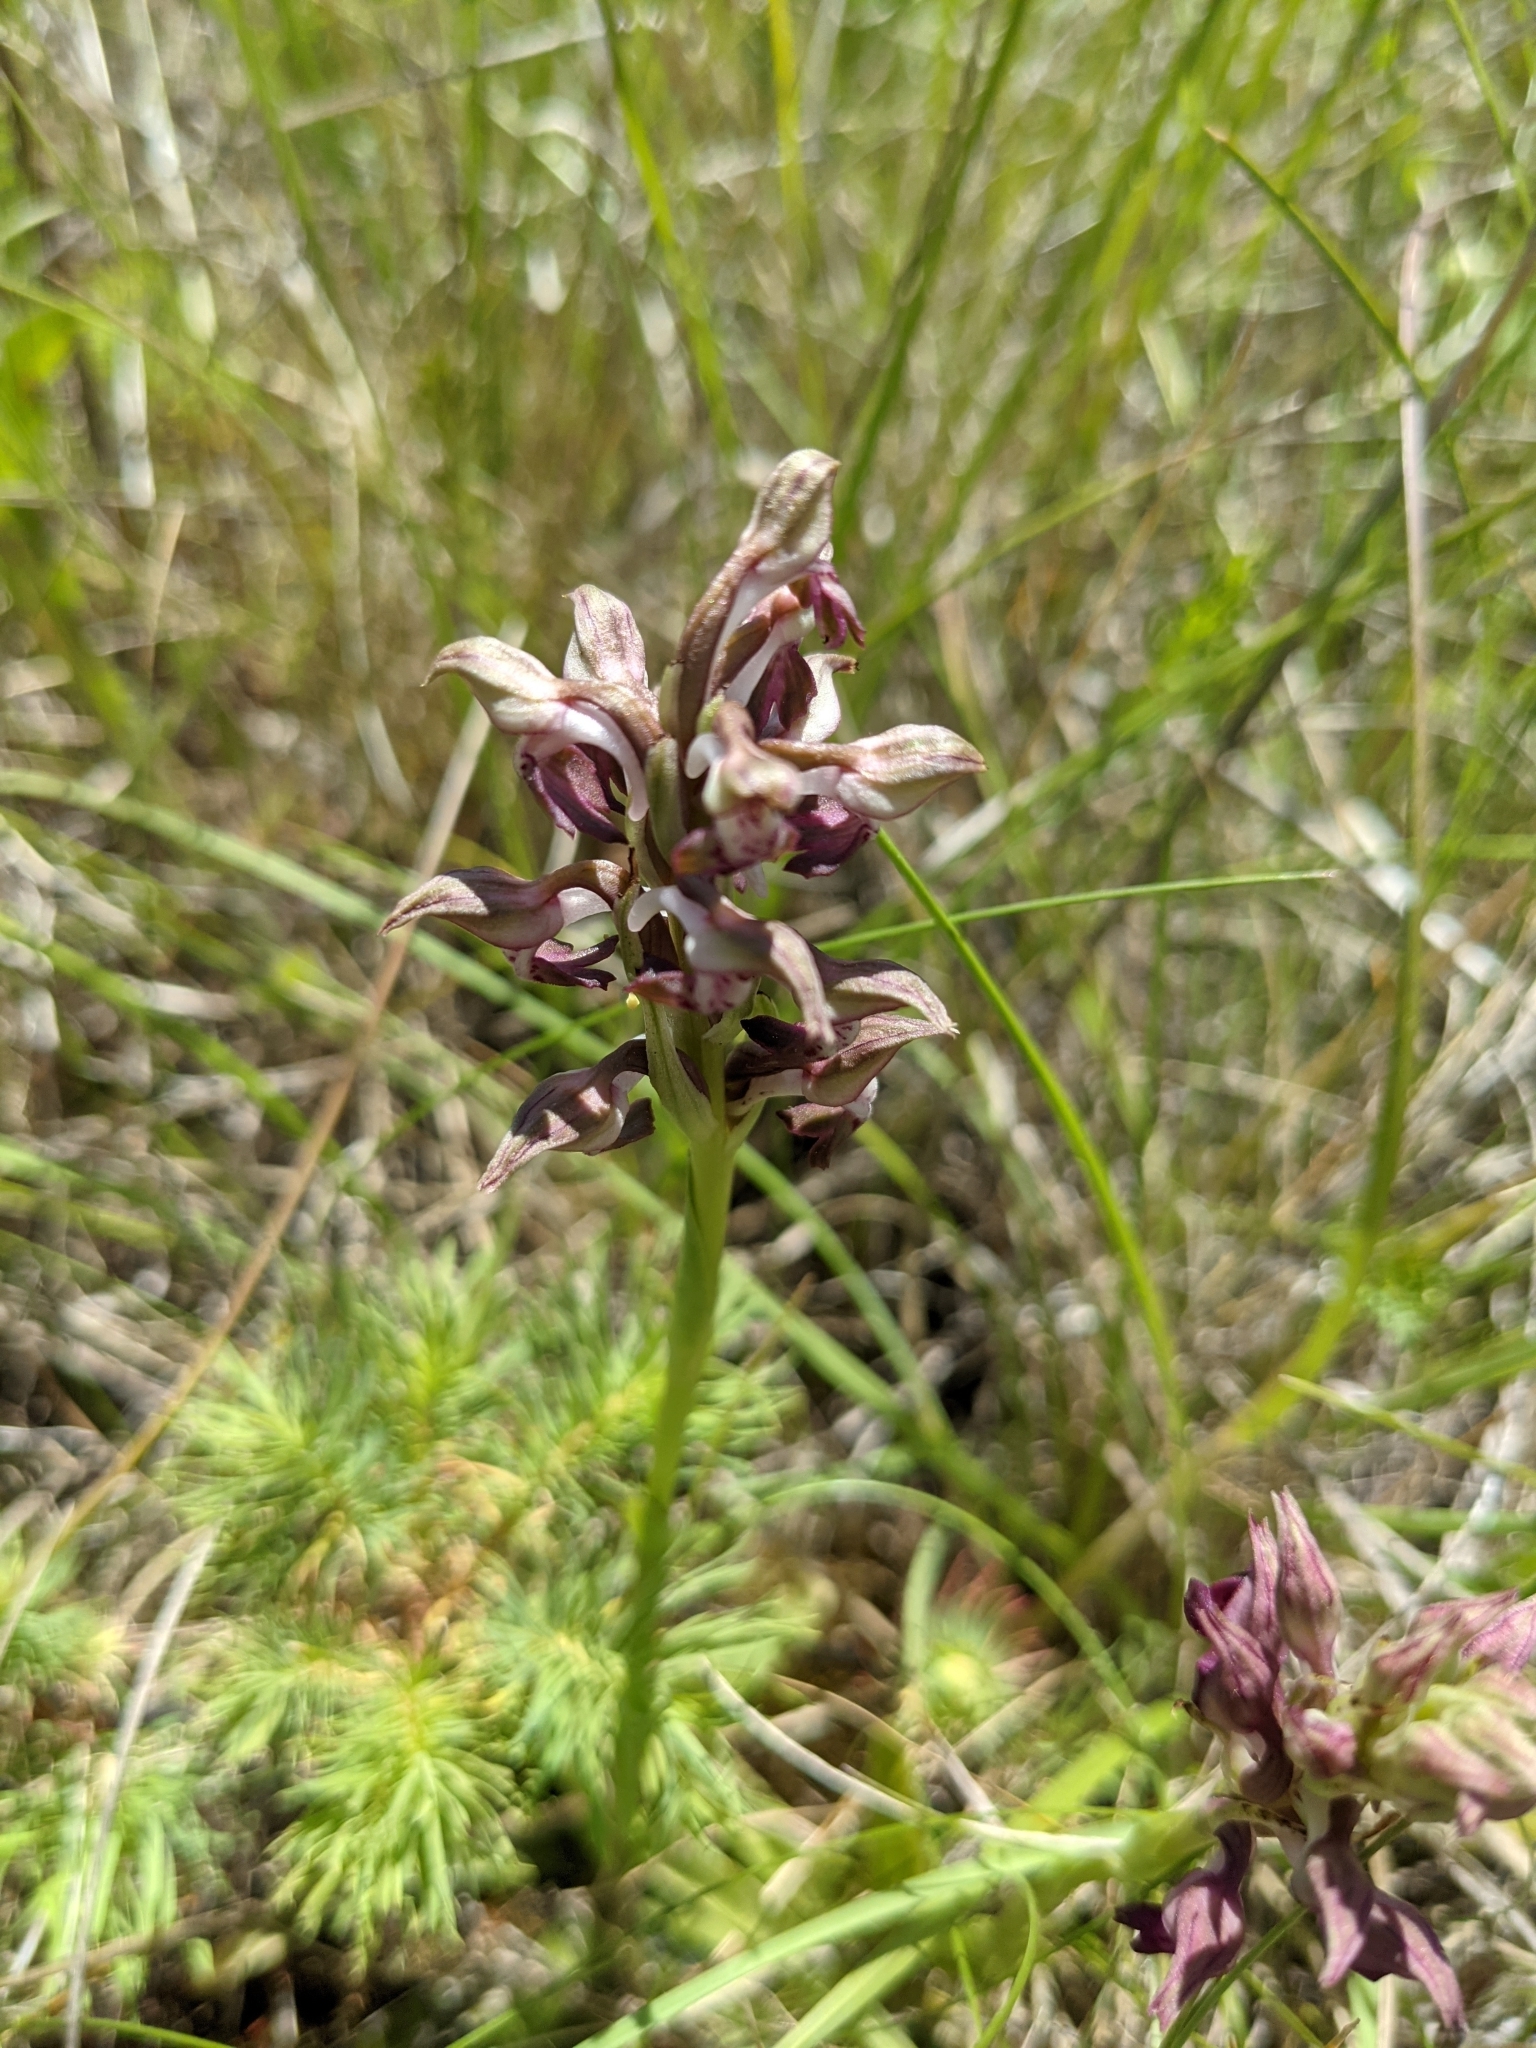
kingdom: Plantae
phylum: Tracheophyta
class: Liliopsida
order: Asparagales
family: Orchidaceae
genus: Anacamptis
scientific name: Anacamptis coriophora
